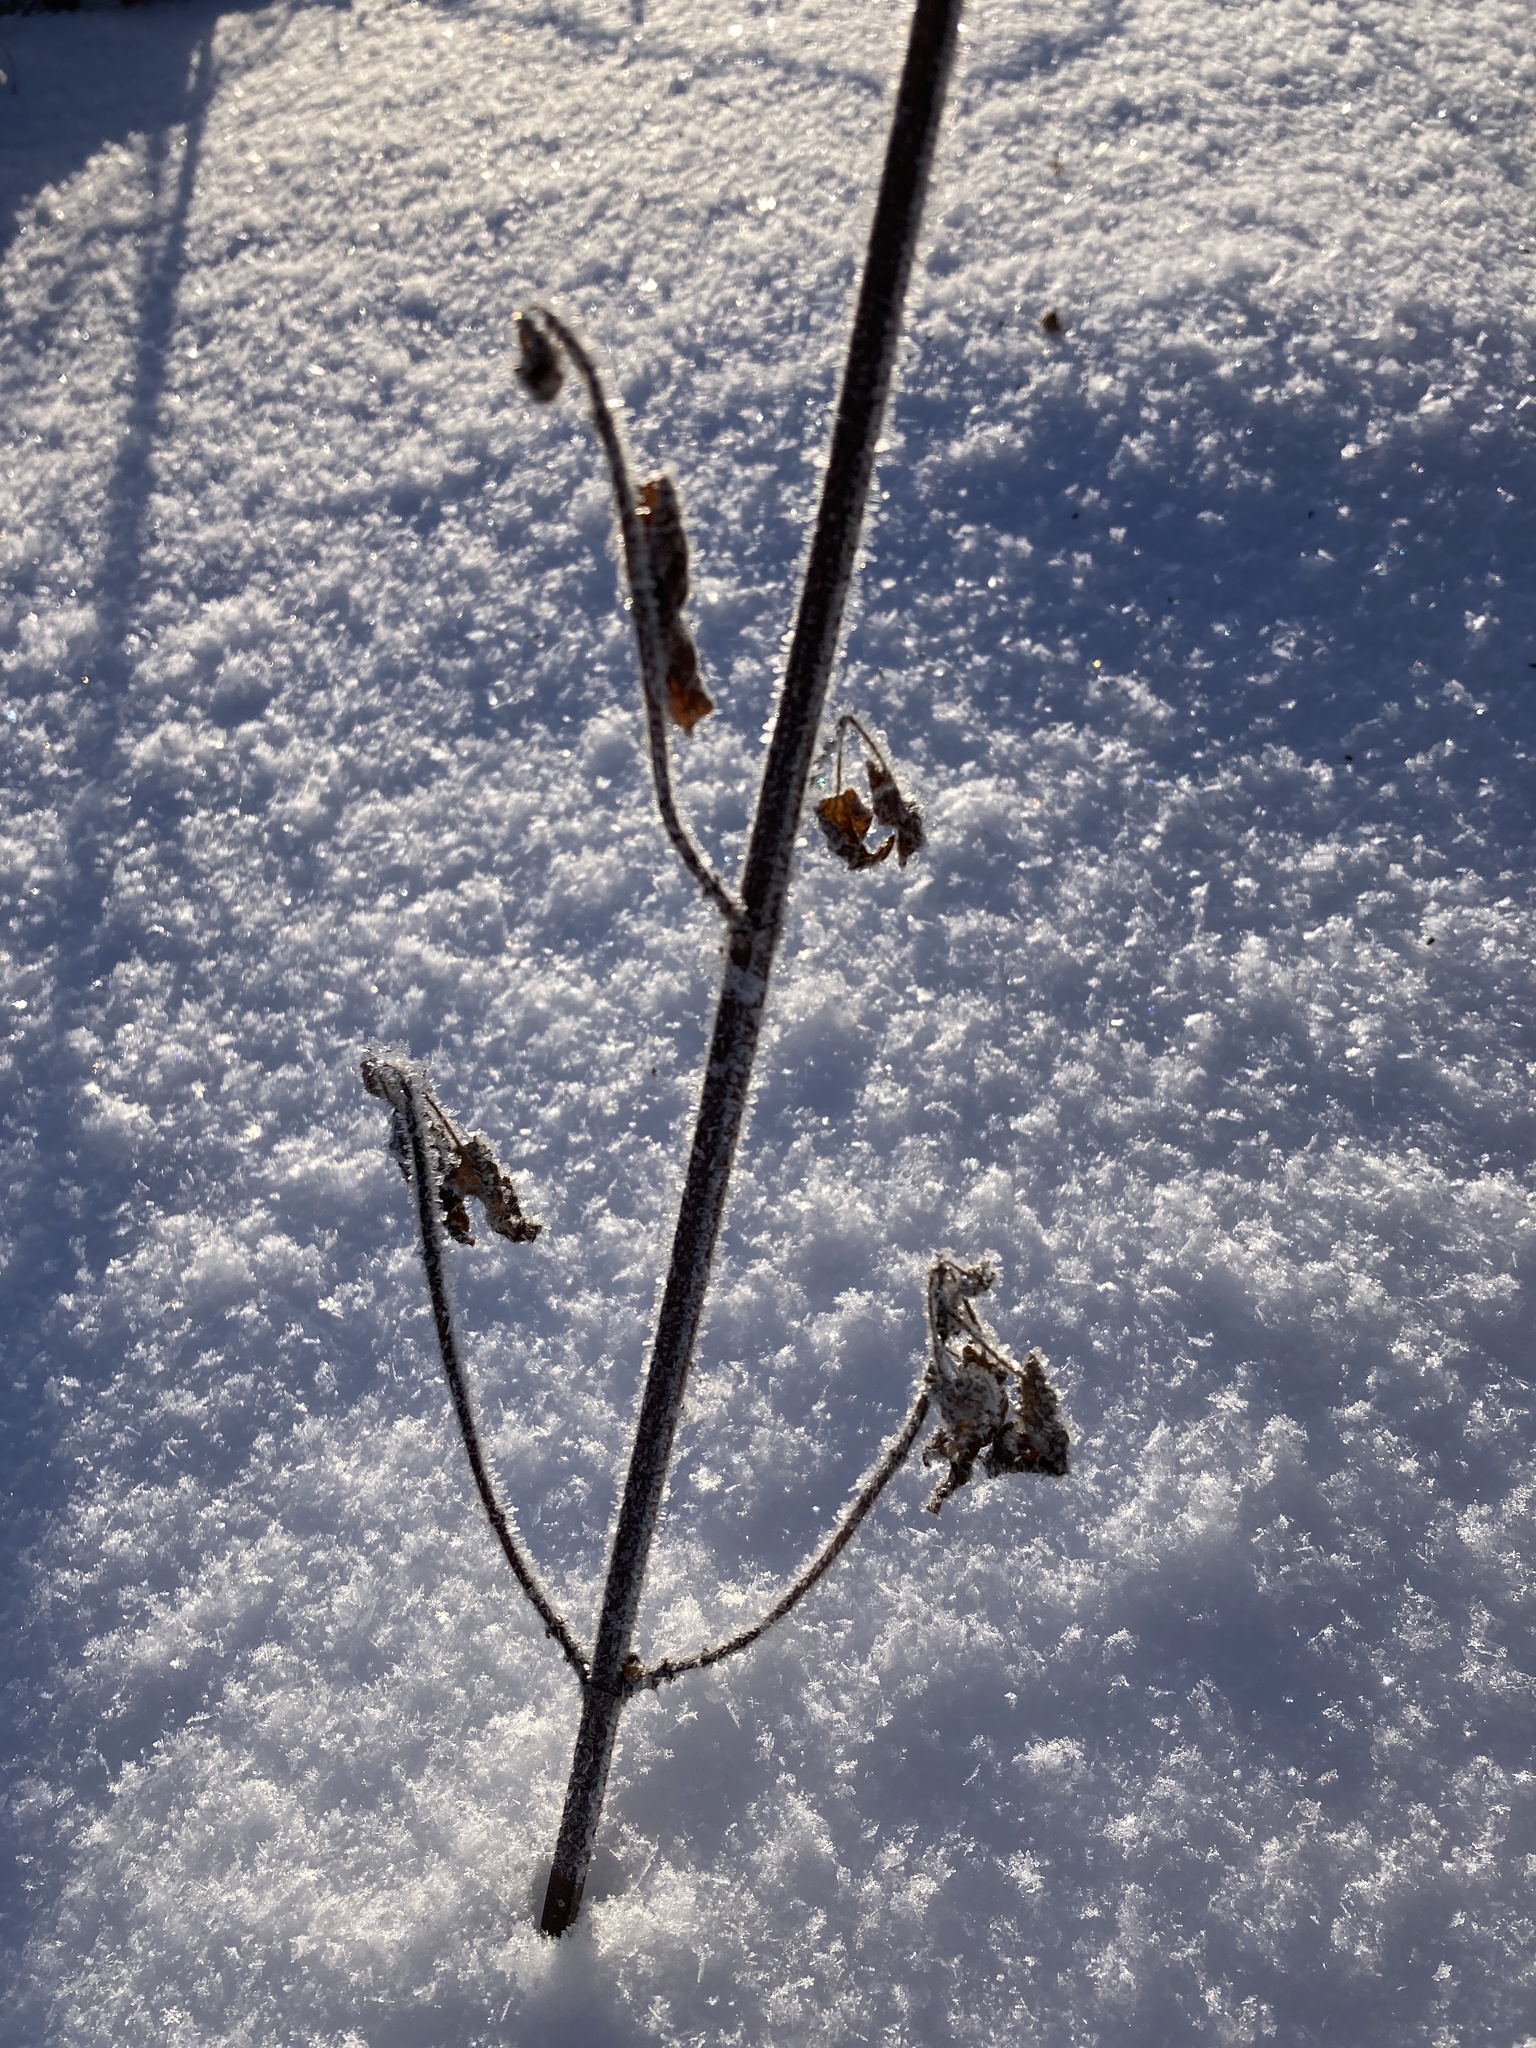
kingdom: Plantae
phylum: Tracheophyta
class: Magnoliopsida
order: Lamiales
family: Lamiaceae
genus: Leonurus
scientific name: Leonurus quinquelobatus
